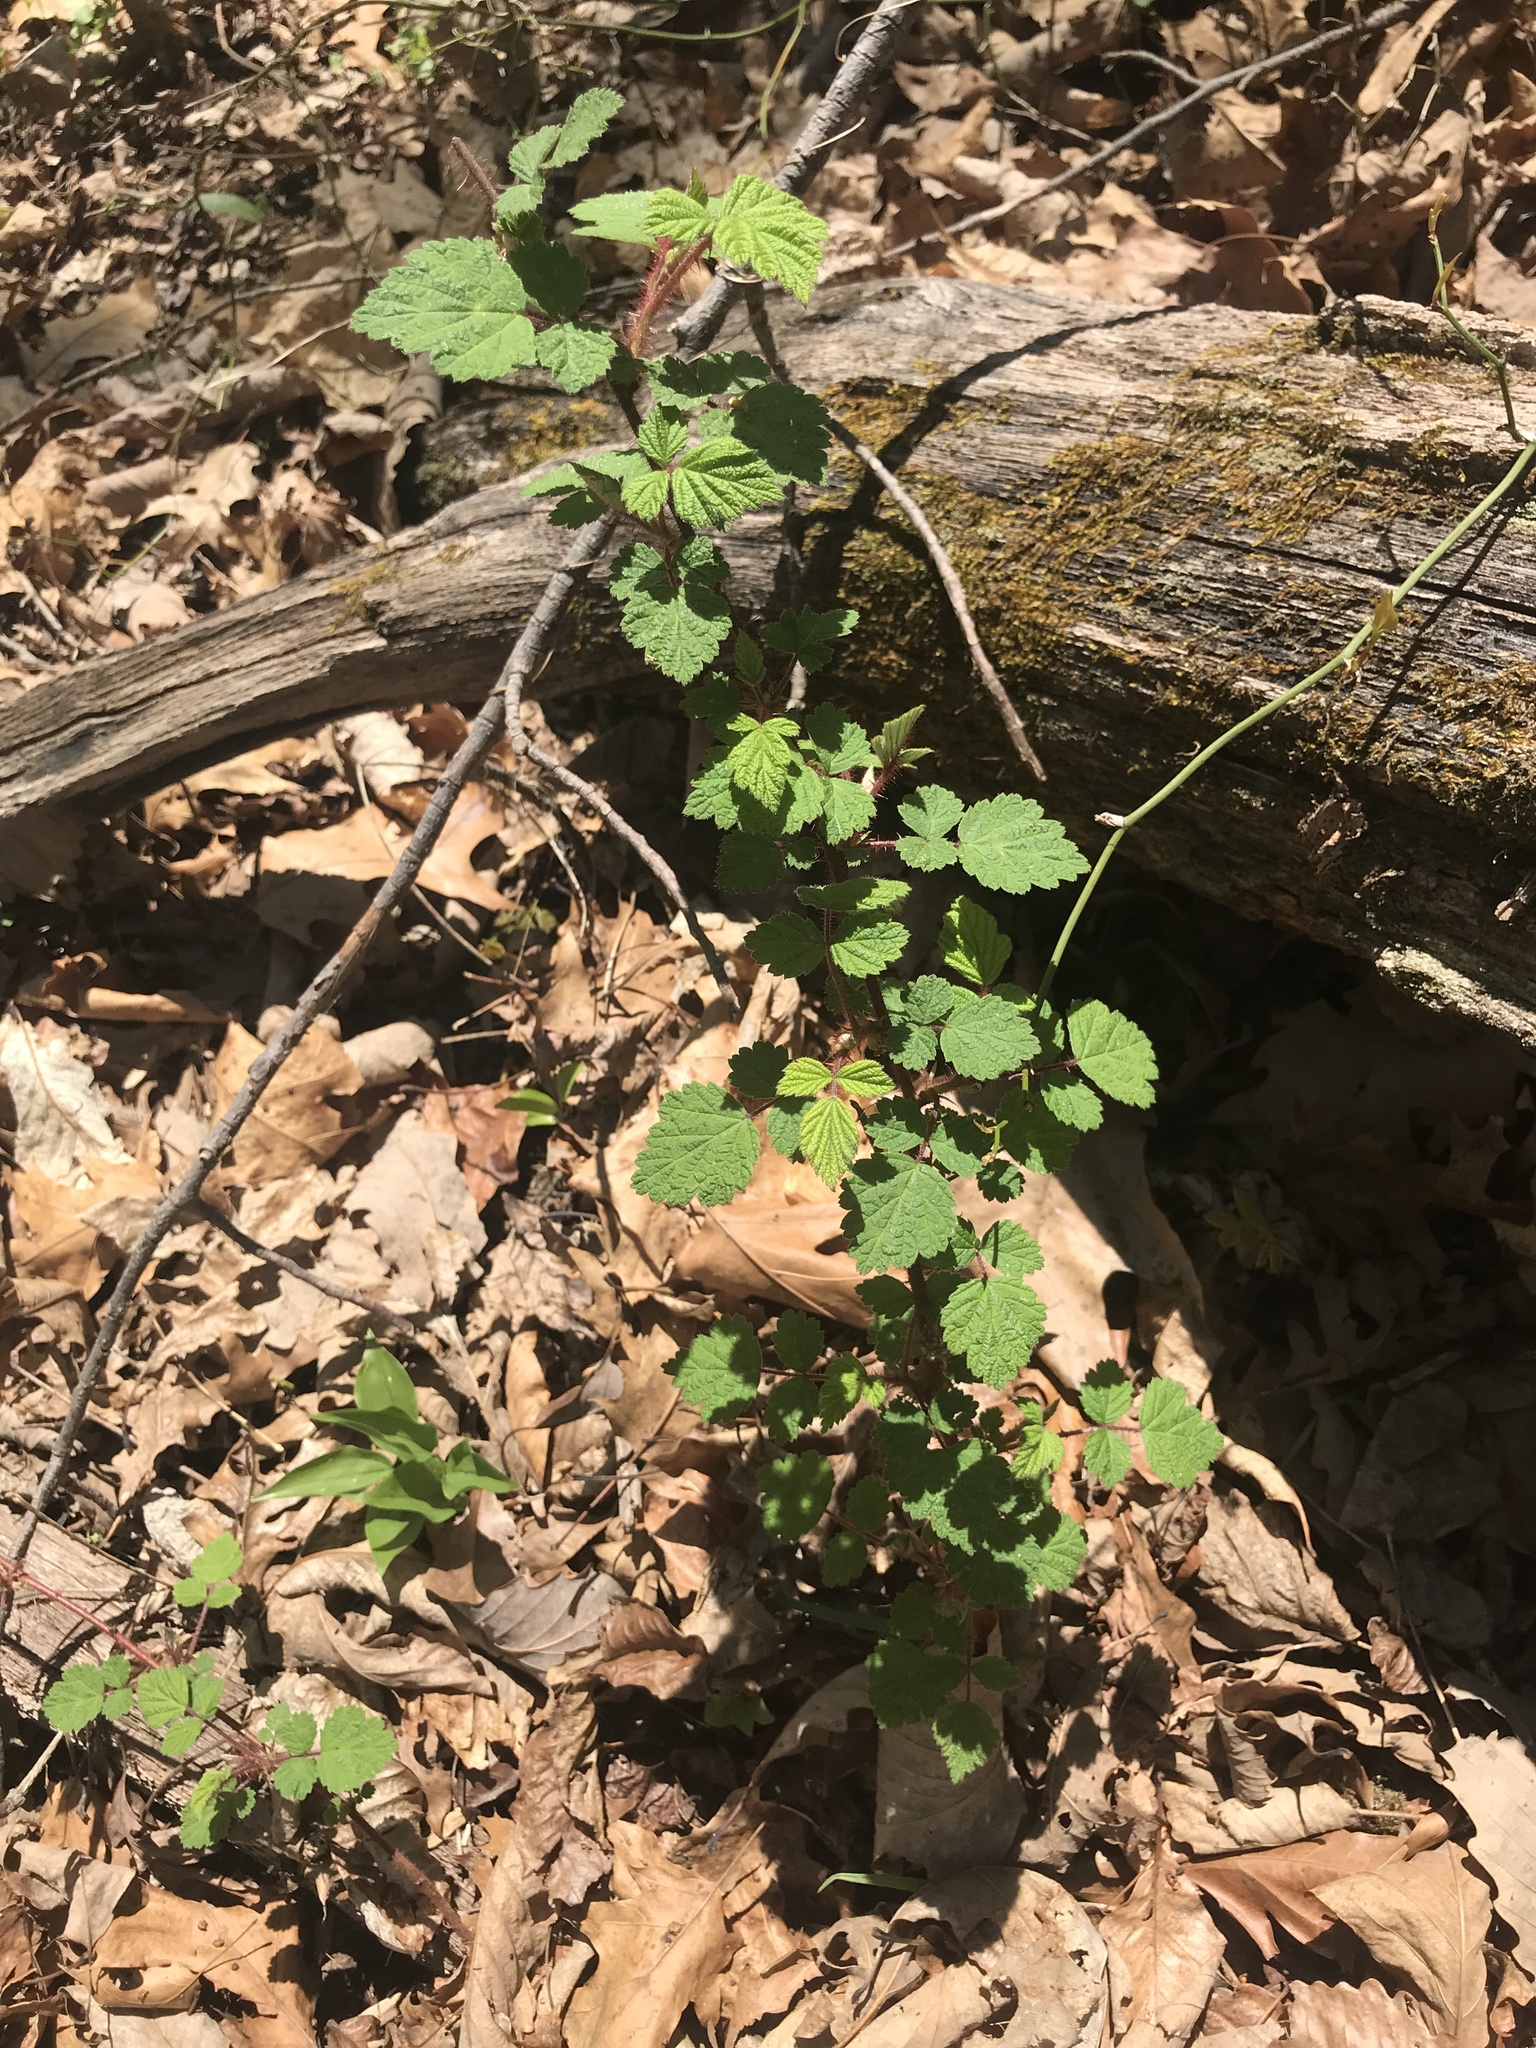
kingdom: Plantae
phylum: Tracheophyta
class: Magnoliopsida
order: Rosales
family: Rosaceae
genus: Rubus
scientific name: Rubus phoenicolasius
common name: Japanese wineberry
